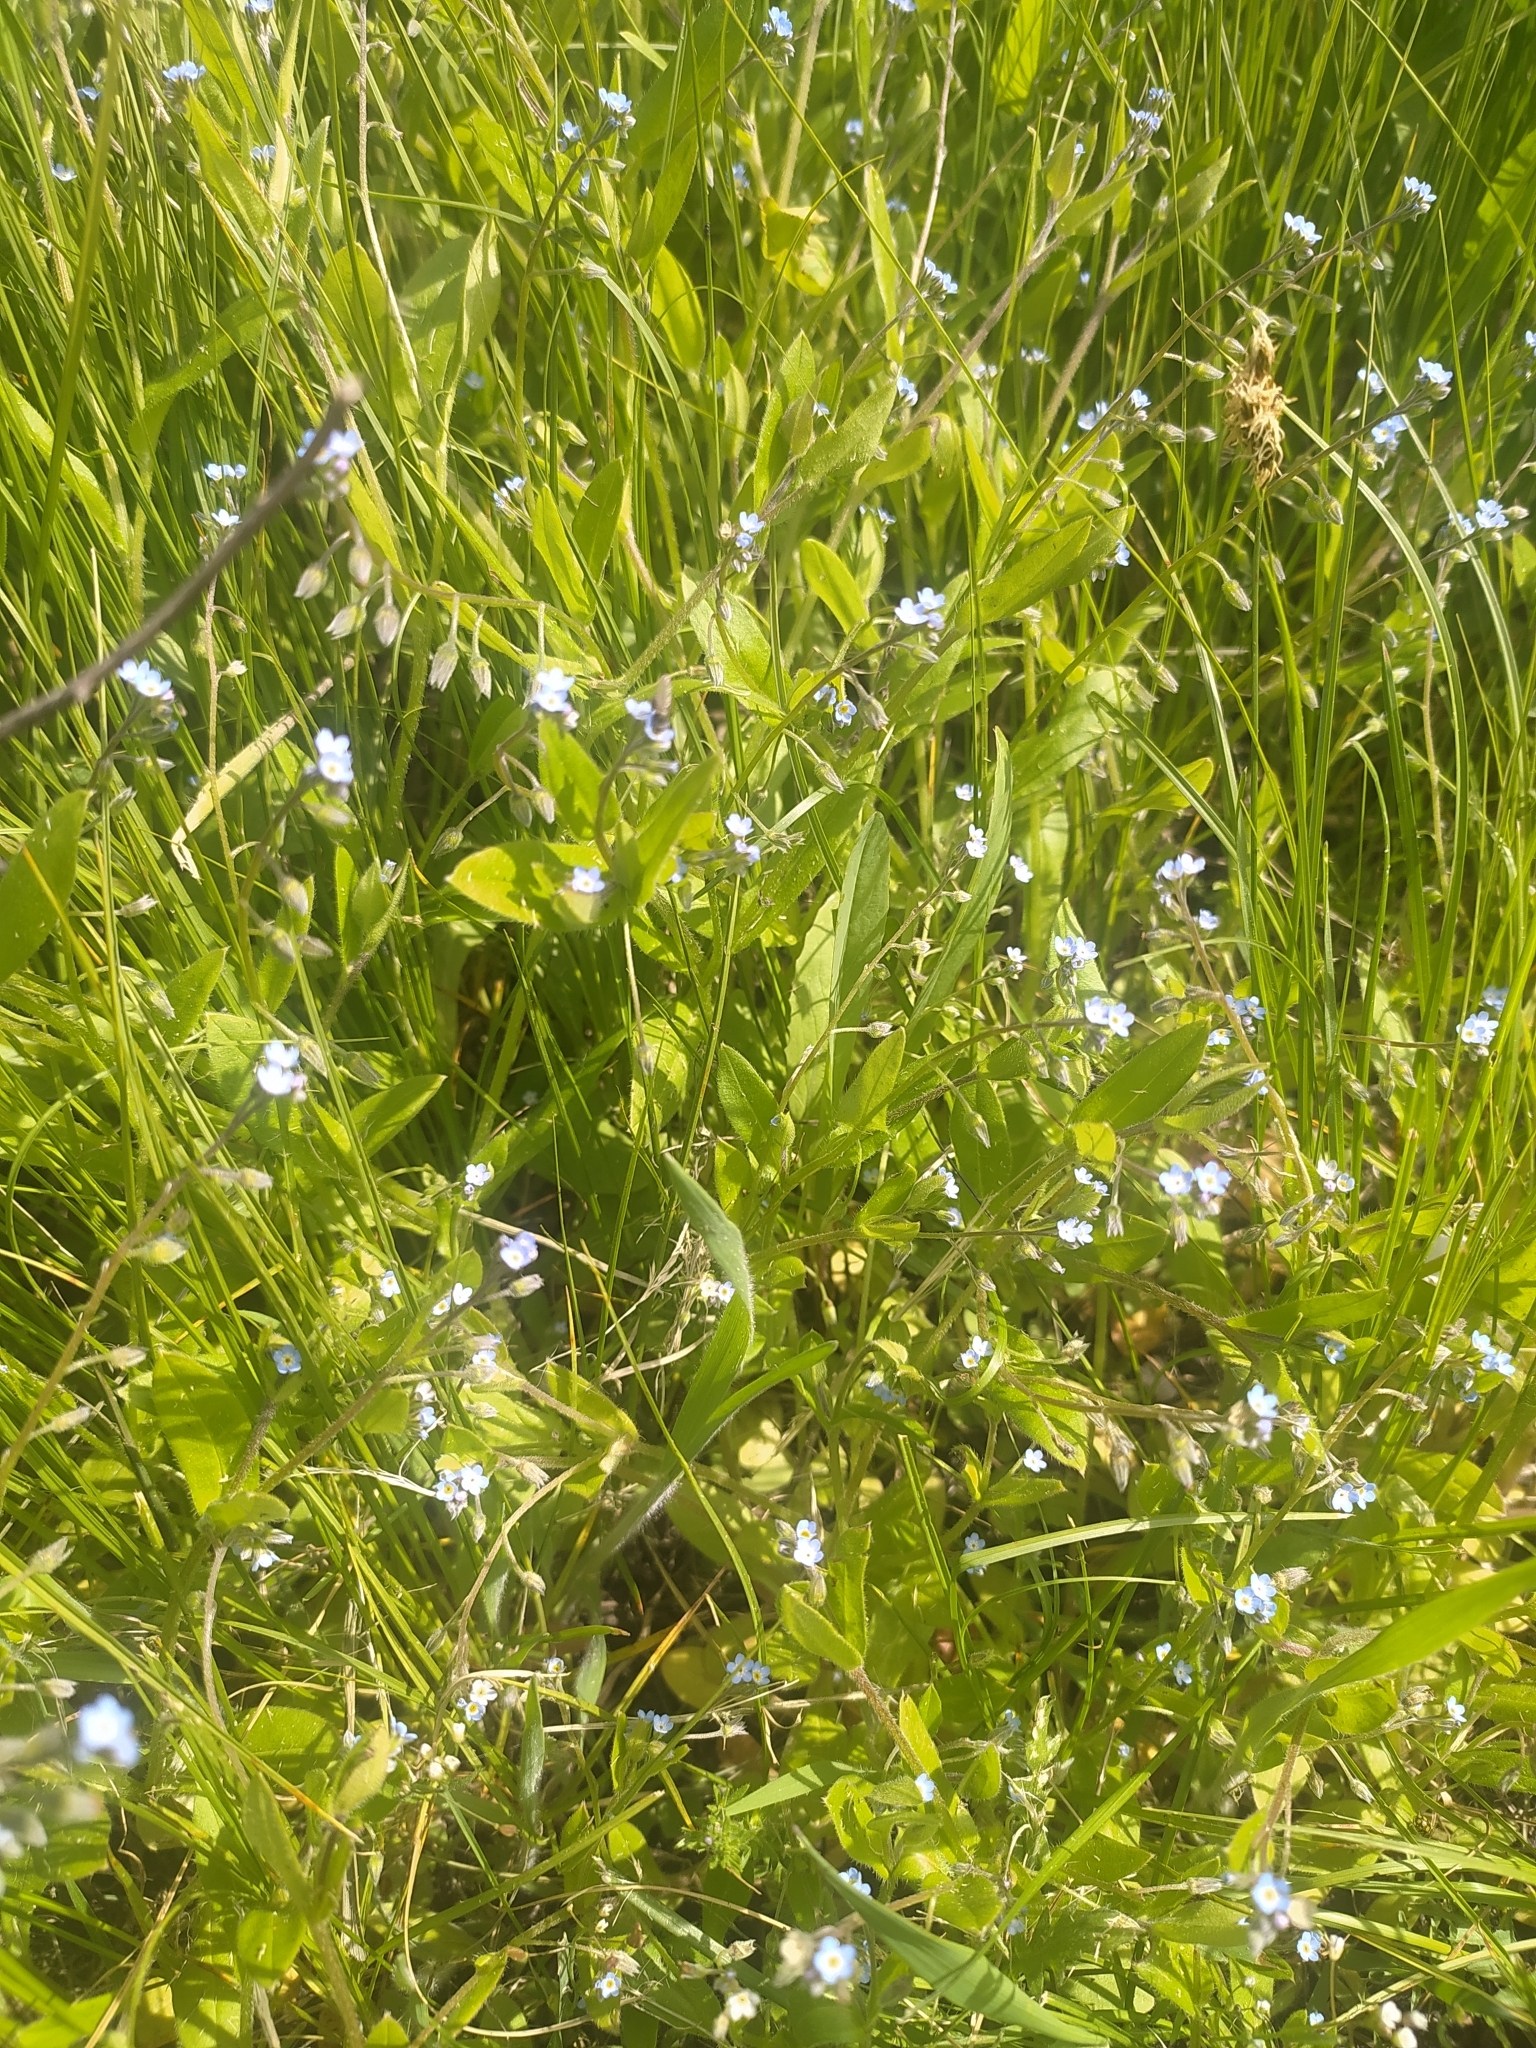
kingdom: Plantae
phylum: Tracheophyta
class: Magnoliopsida
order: Boraginales
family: Boraginaceae
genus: Myosotis
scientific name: Myosotis sparsiflora
